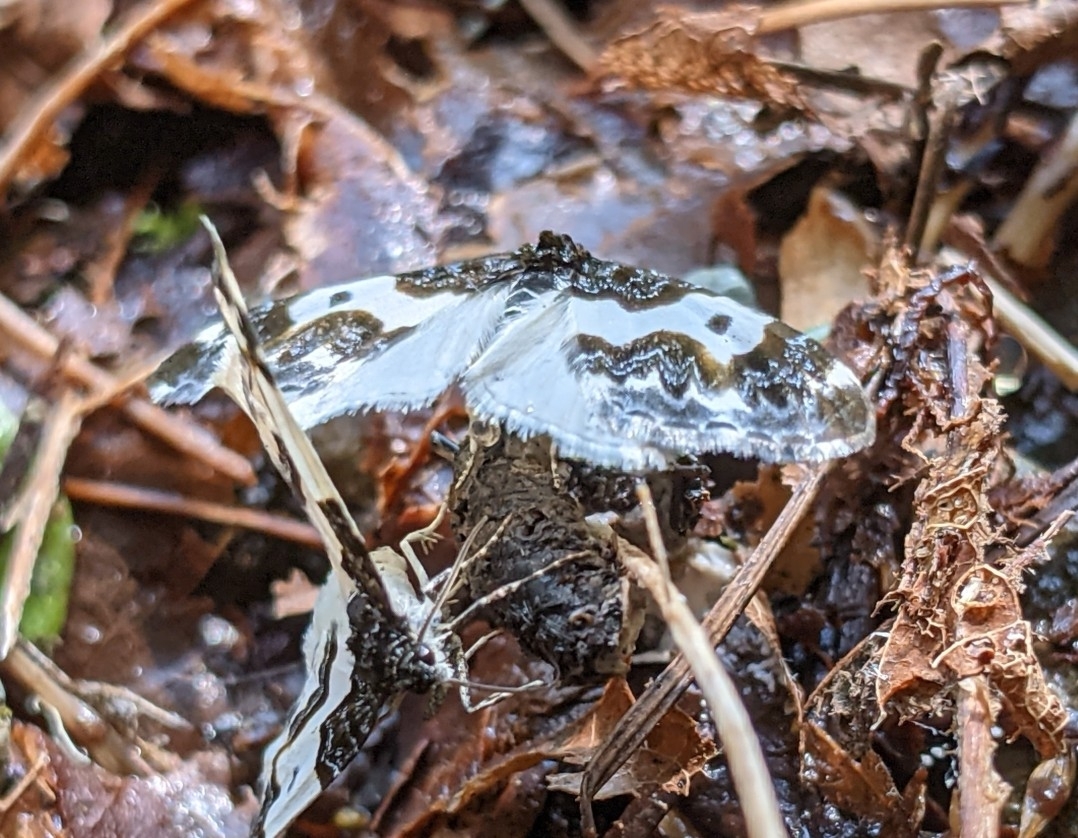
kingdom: Animalia
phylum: Arthropoda
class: Insecta
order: Lepidoptera
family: Geometridae
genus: Mesoleuca
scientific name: Mesoleuca gratulata
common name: Half-white carpet moth
